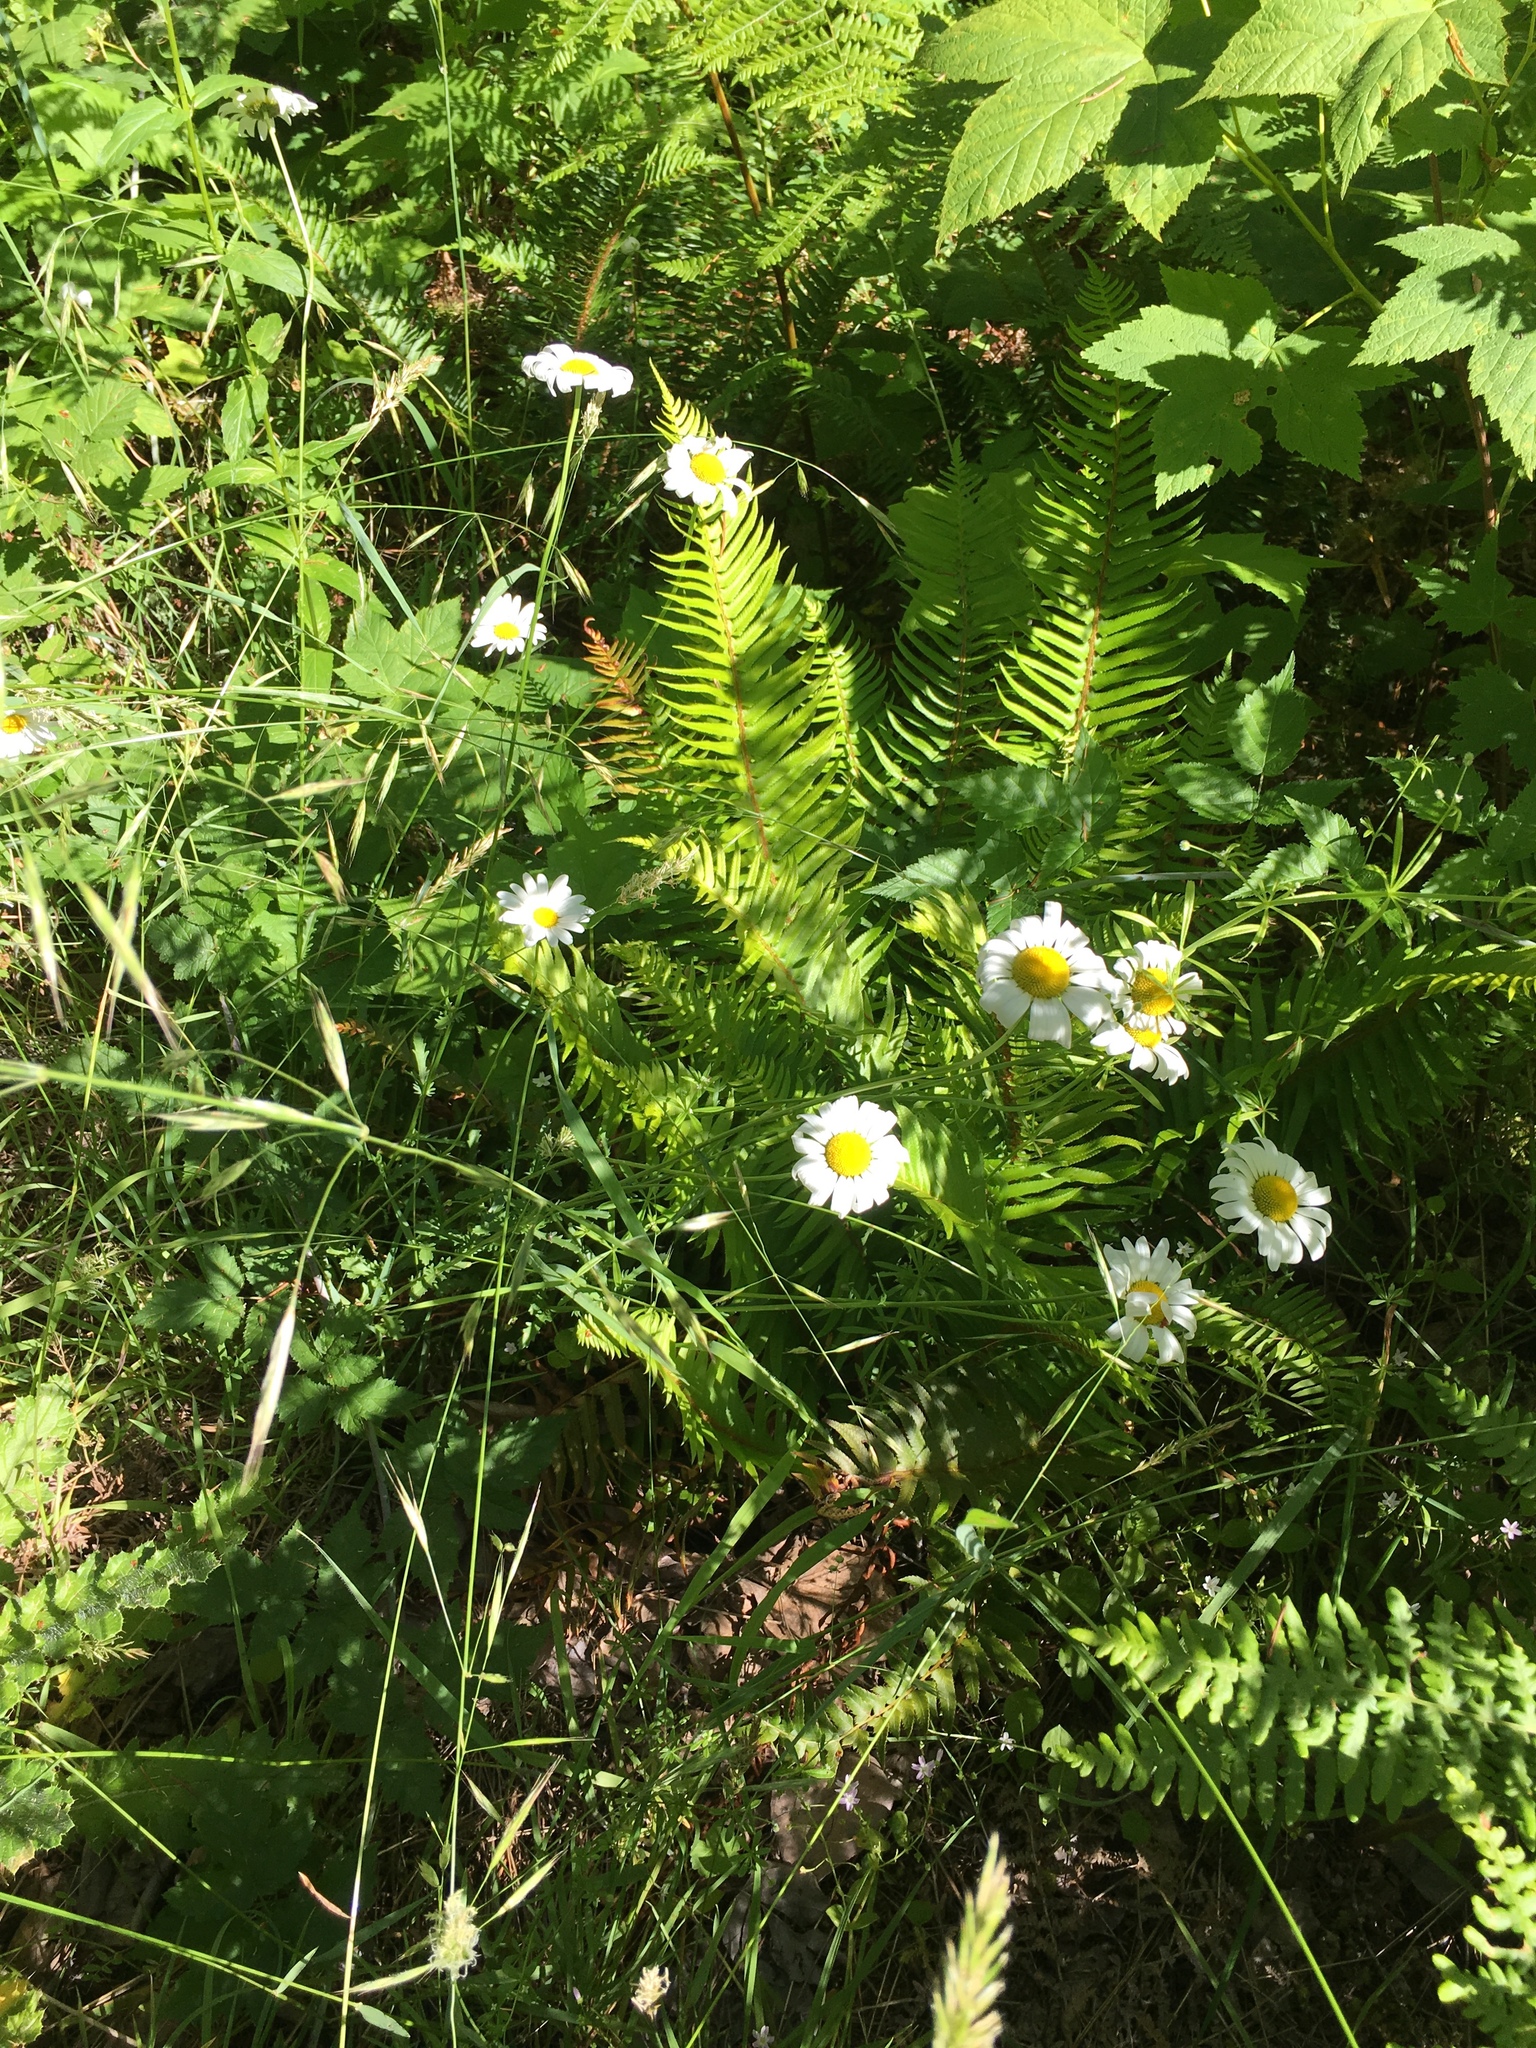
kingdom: Plantae
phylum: Tracheophyta
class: Magnoliopsida
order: Asterales
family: Asteraceae
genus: Leucanthemum
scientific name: Leucanthemum vulgare
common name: Oxeye daisy
